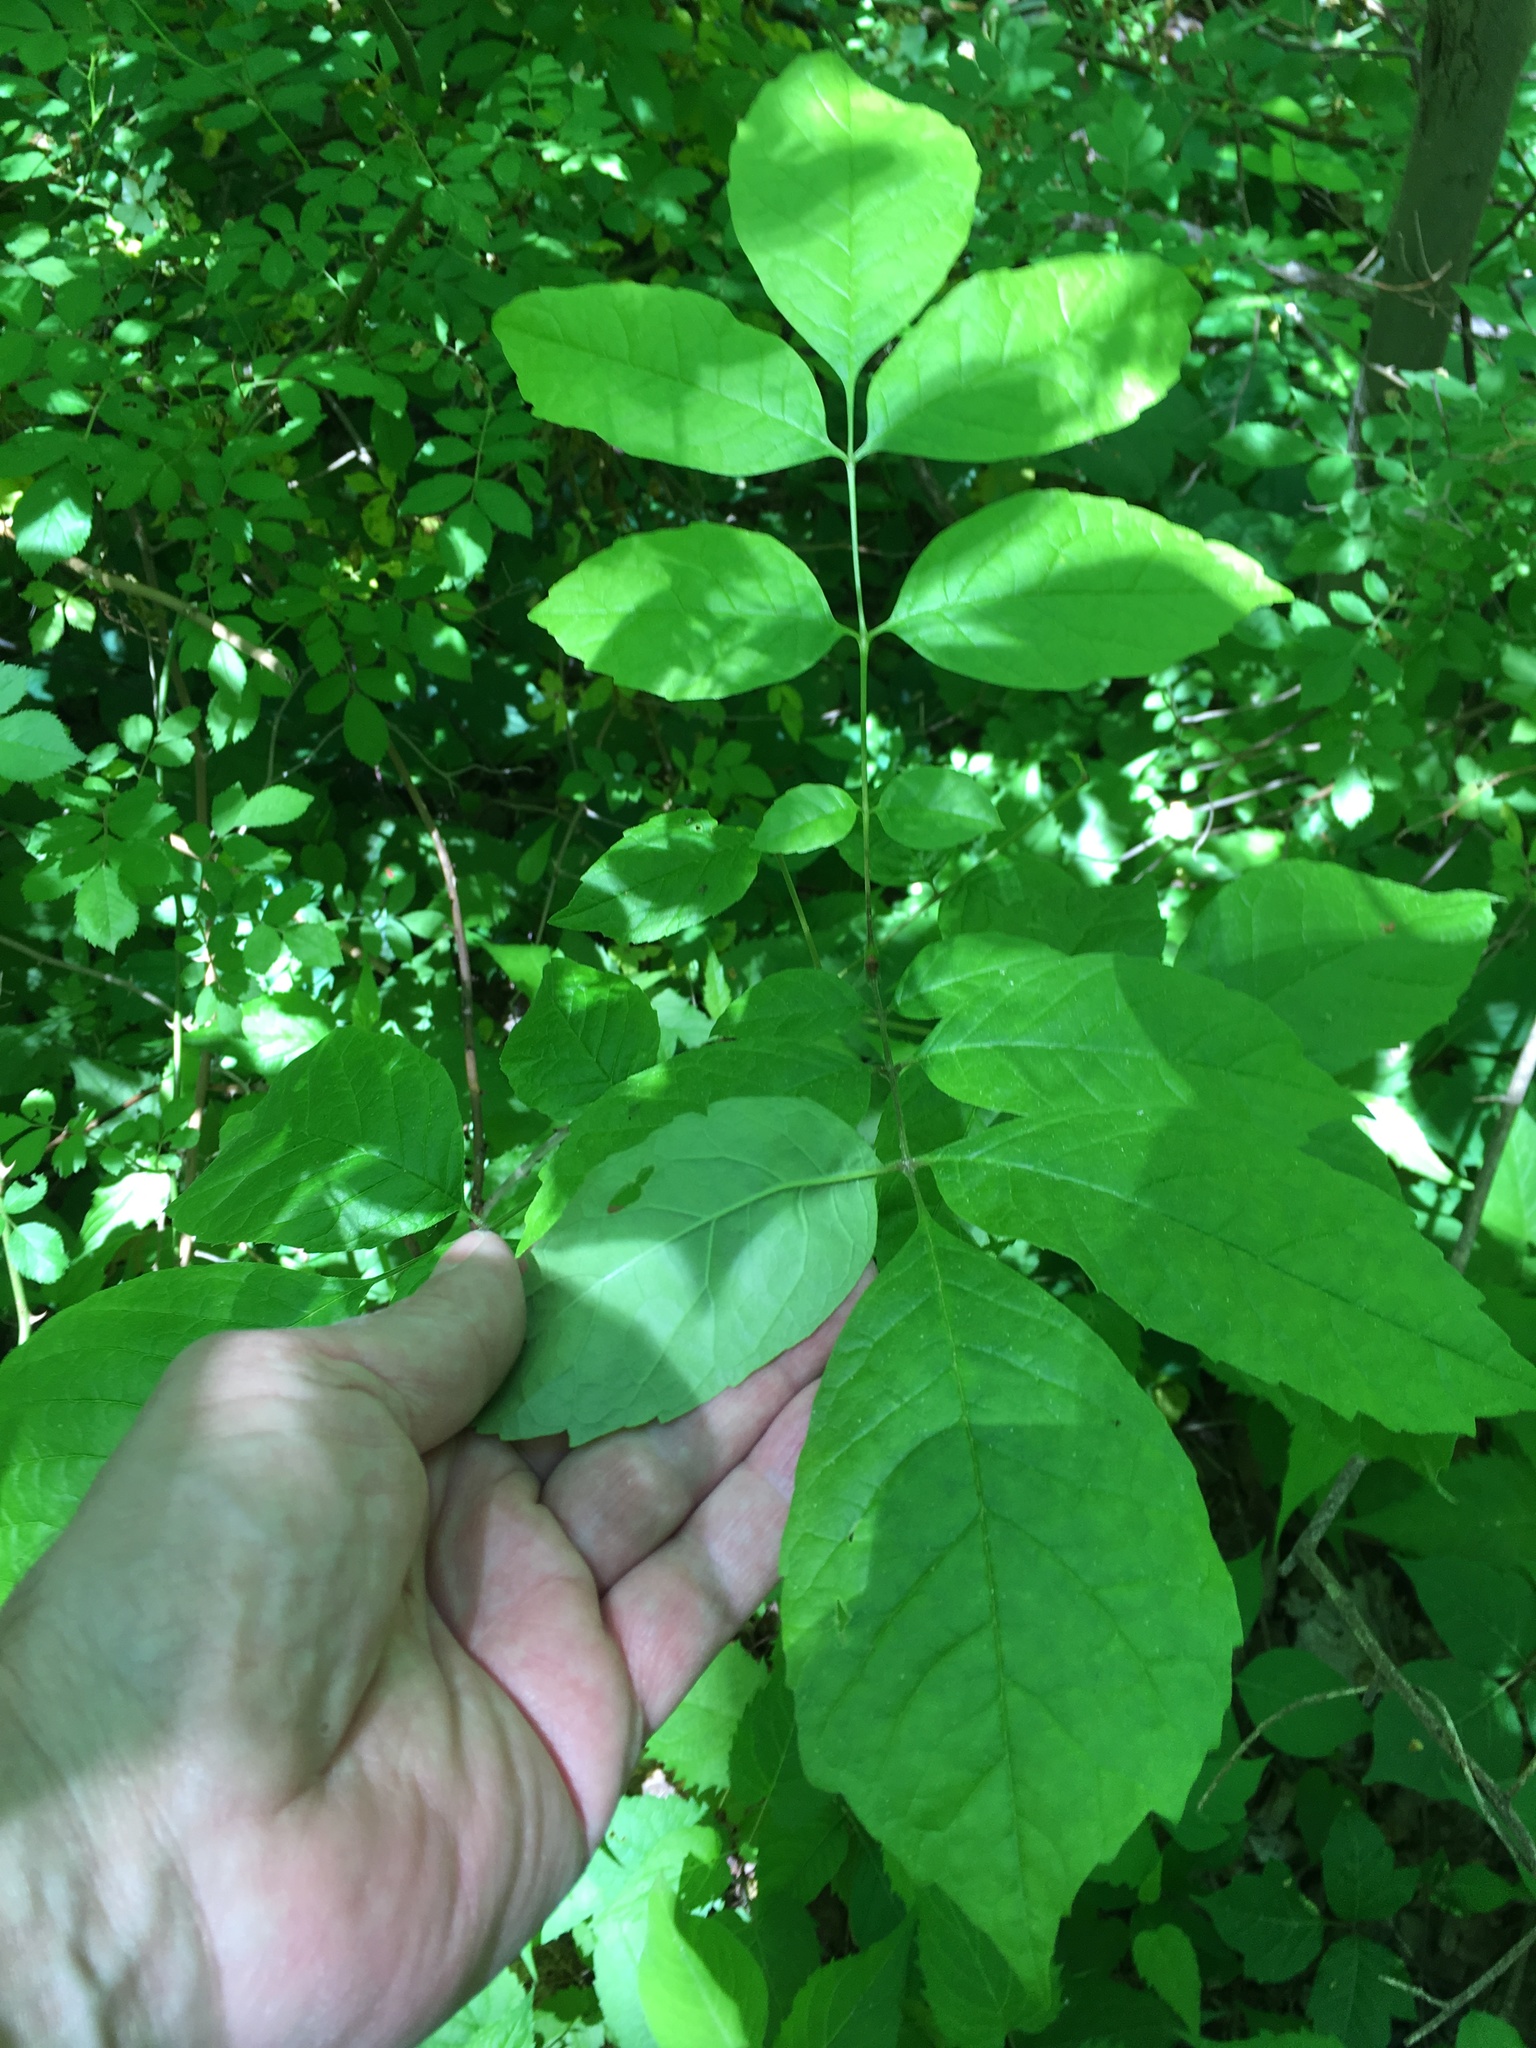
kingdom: Plantae
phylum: Tracheophyta
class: Magnoliopsida
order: Lamiales
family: Oleaceae
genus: Fraxinus
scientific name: Fraxinus americana
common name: White ash
